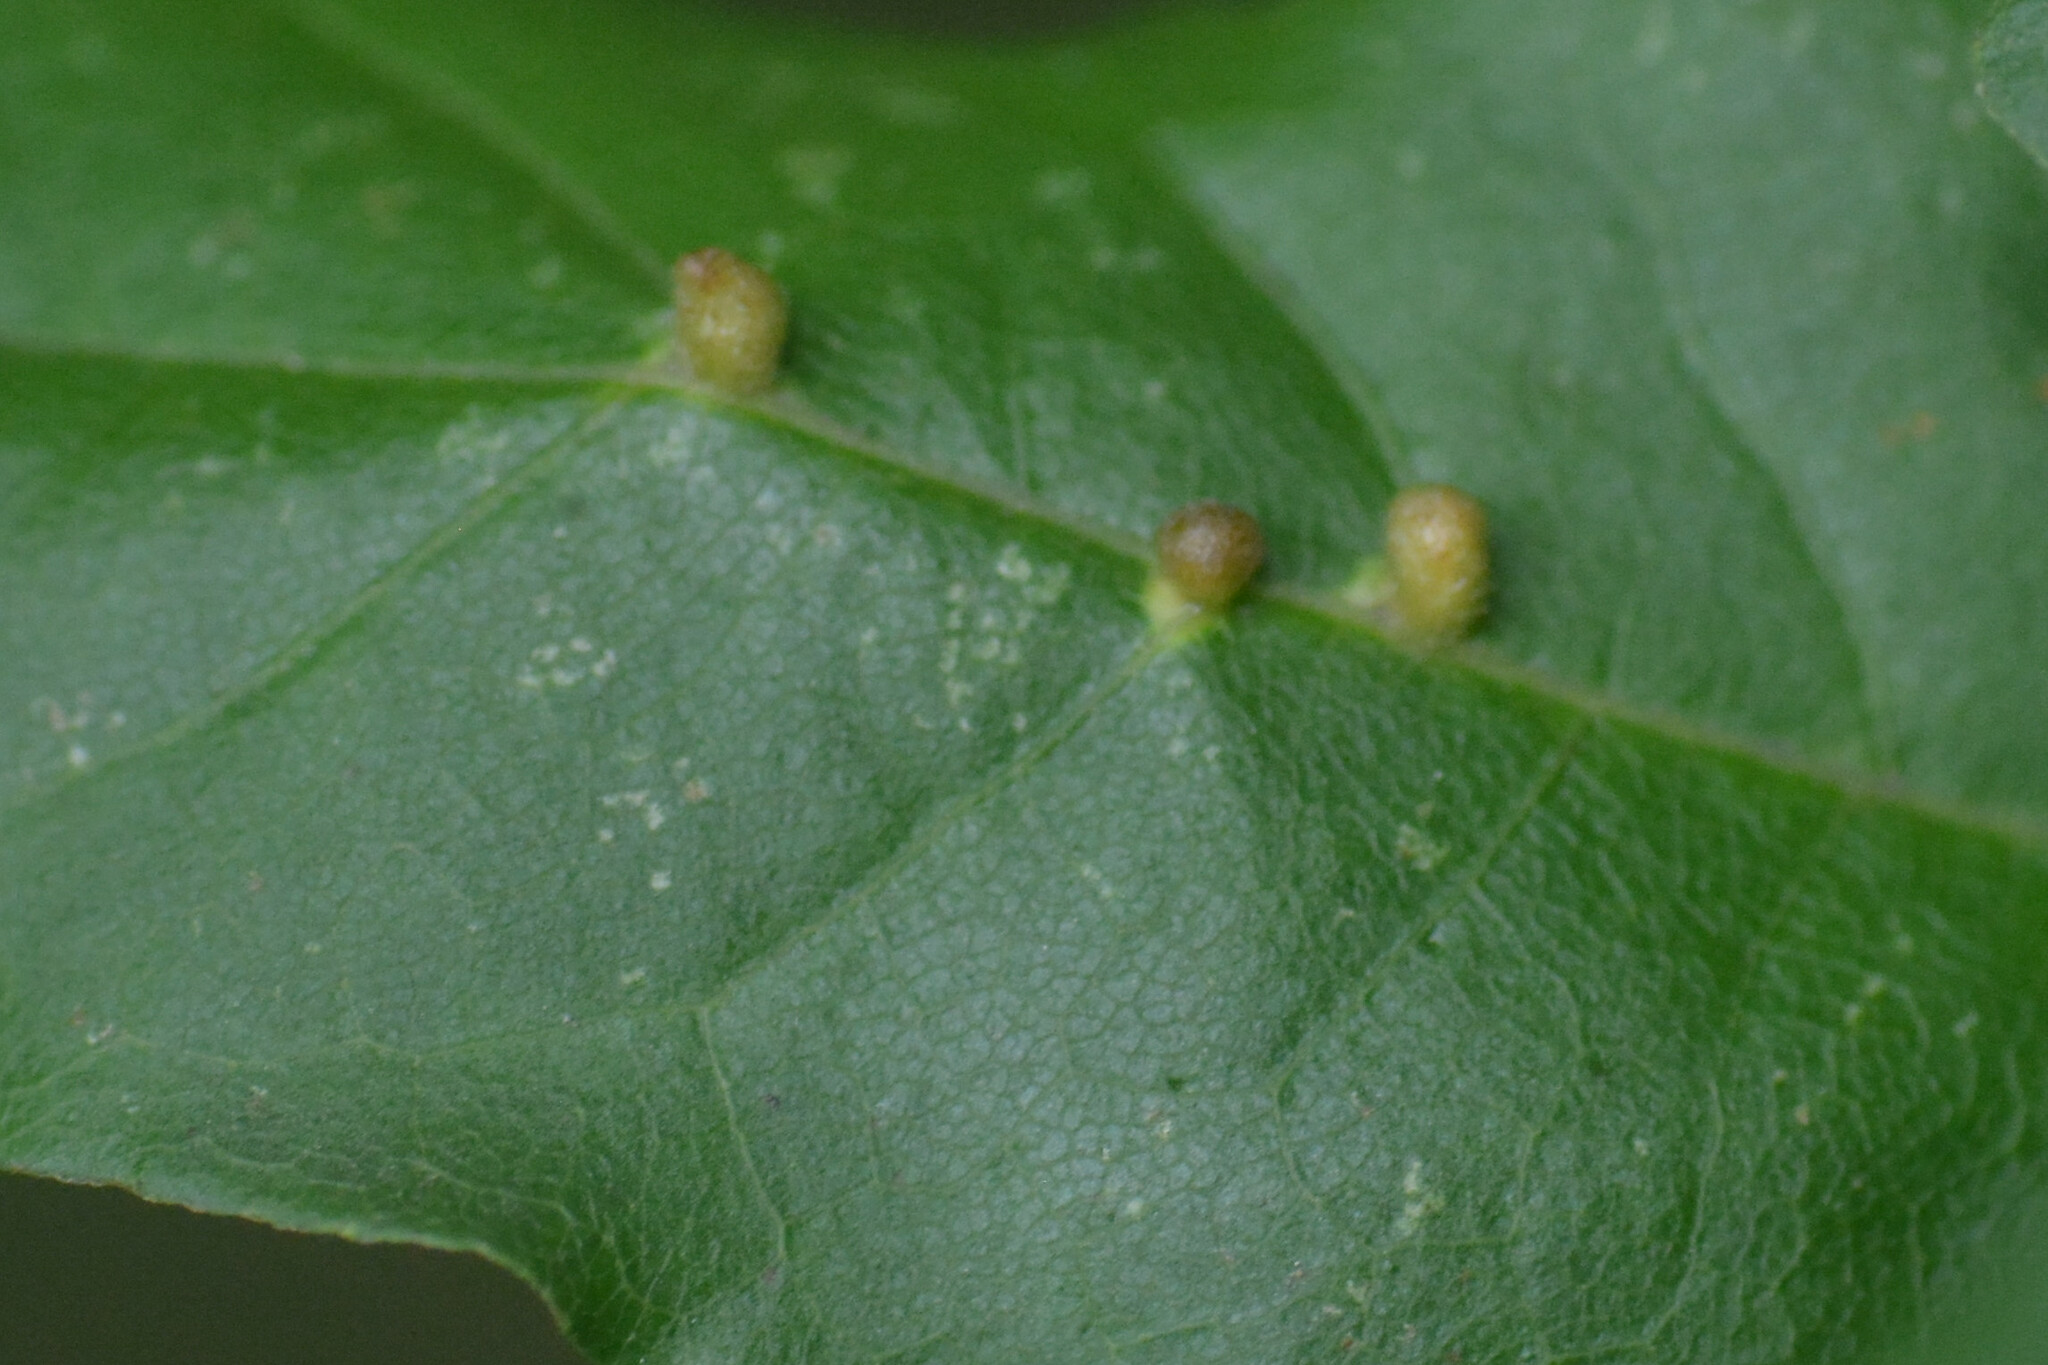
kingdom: Animalia
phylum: Arthropoda
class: Arachnida
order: Trombidiformes
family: Eriophyidae
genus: Aceria
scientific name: Aceria macrochelus
